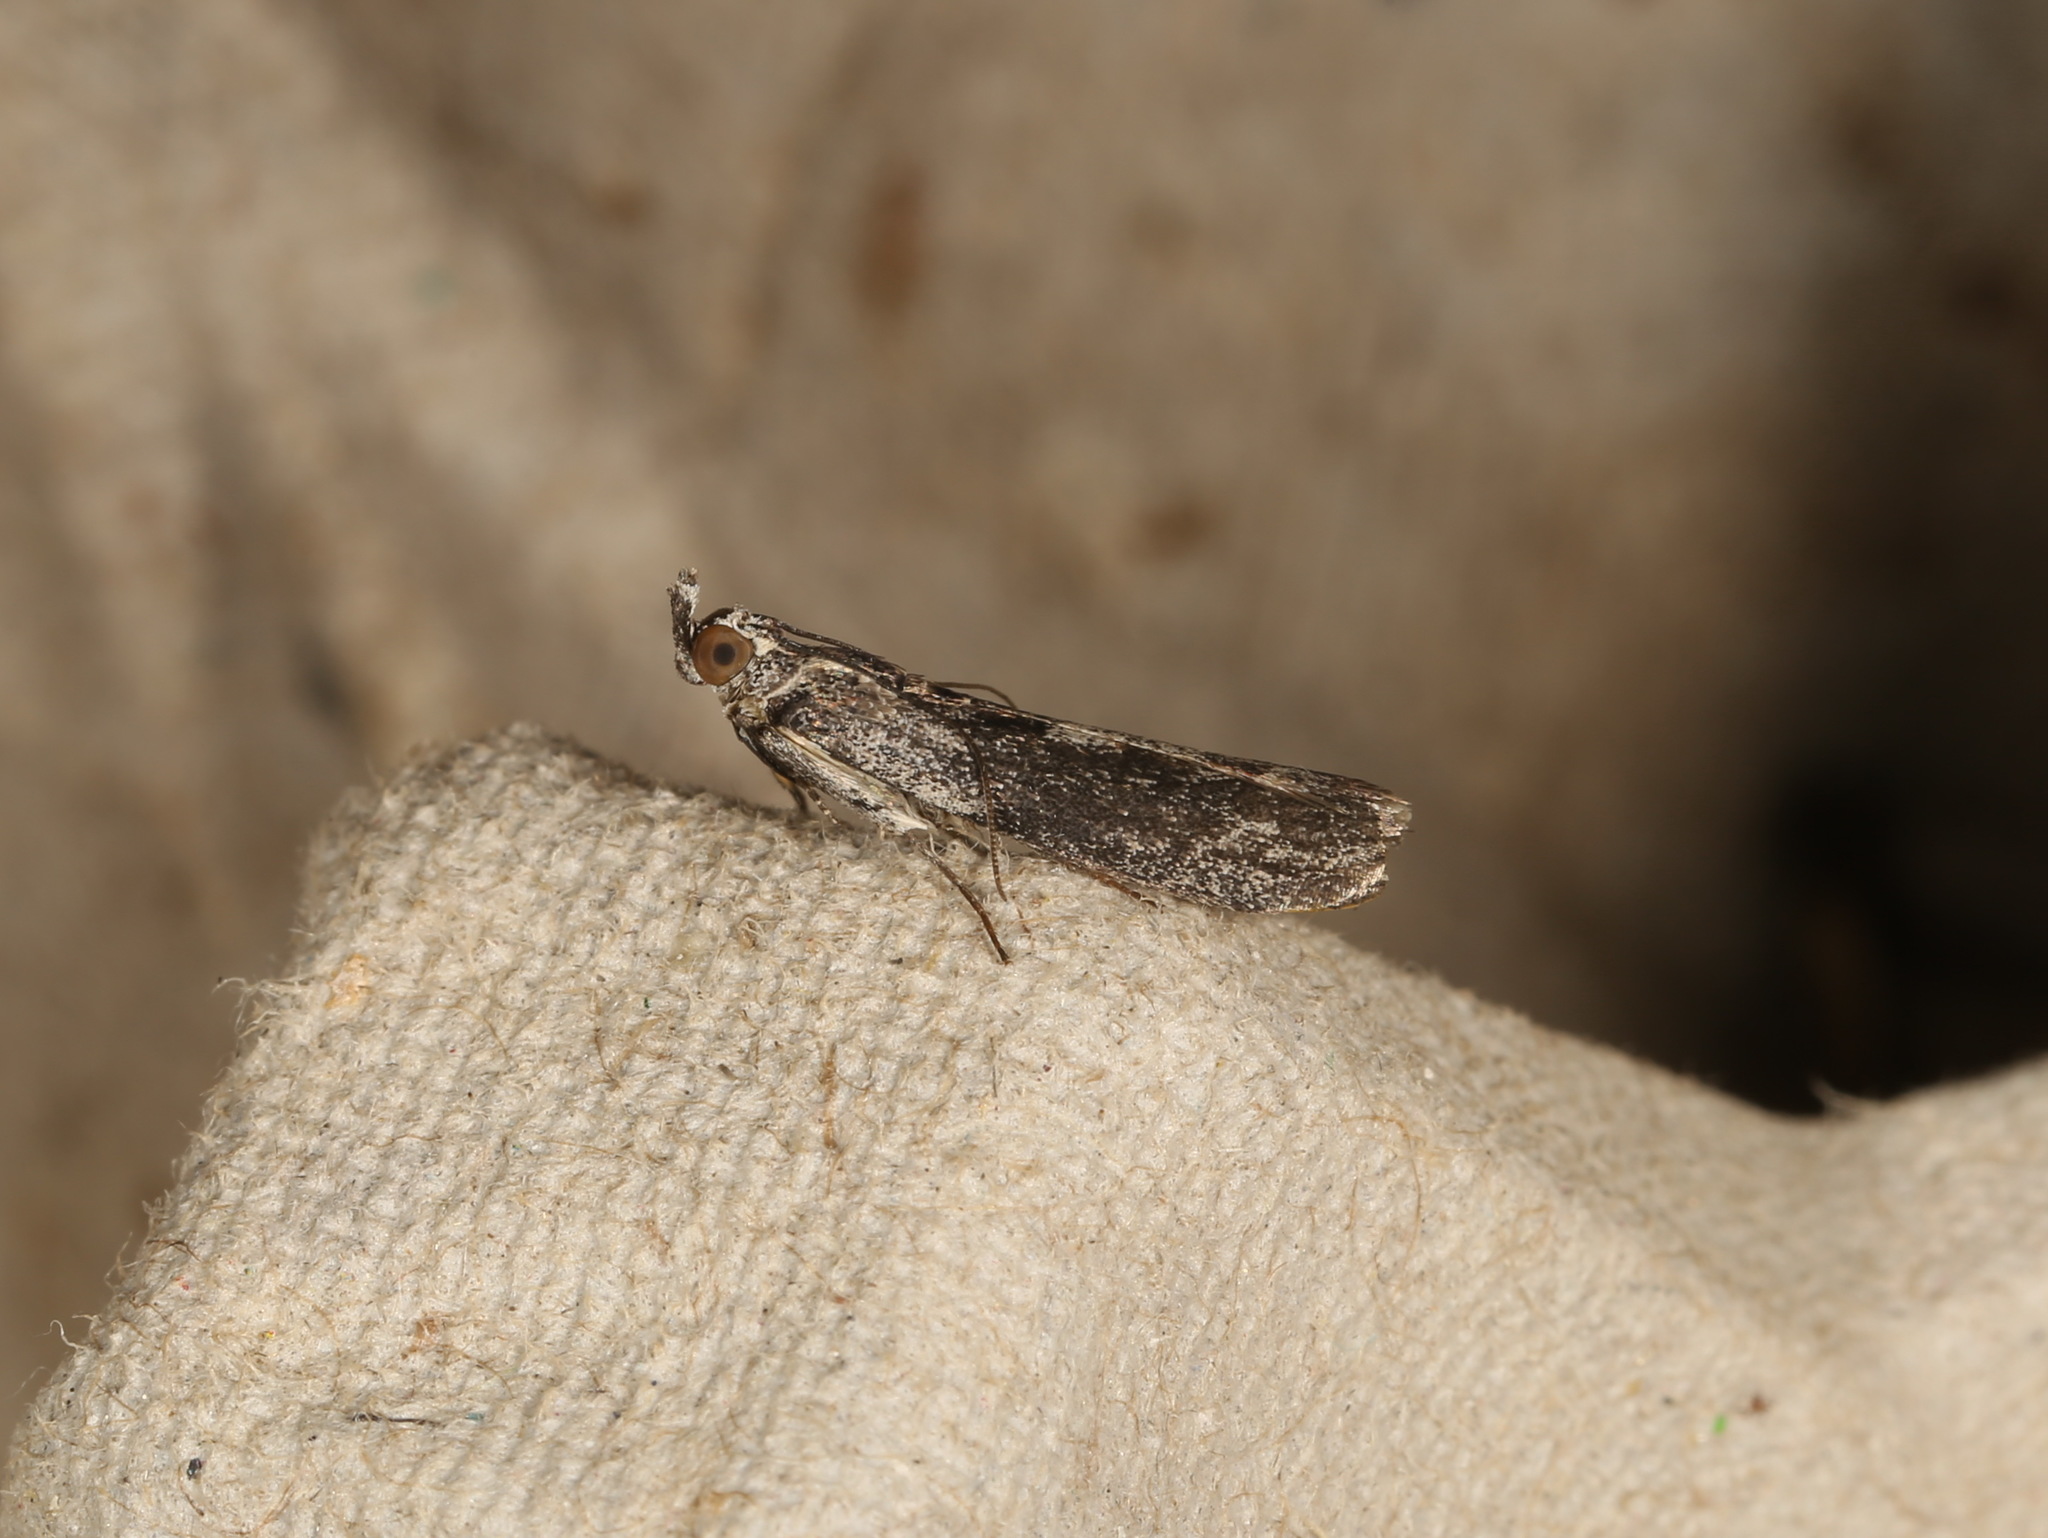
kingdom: Animalia
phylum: Arthropoda
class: Insecta
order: Lepidoptera
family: Pyralidae
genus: Sciota
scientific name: Sciota
